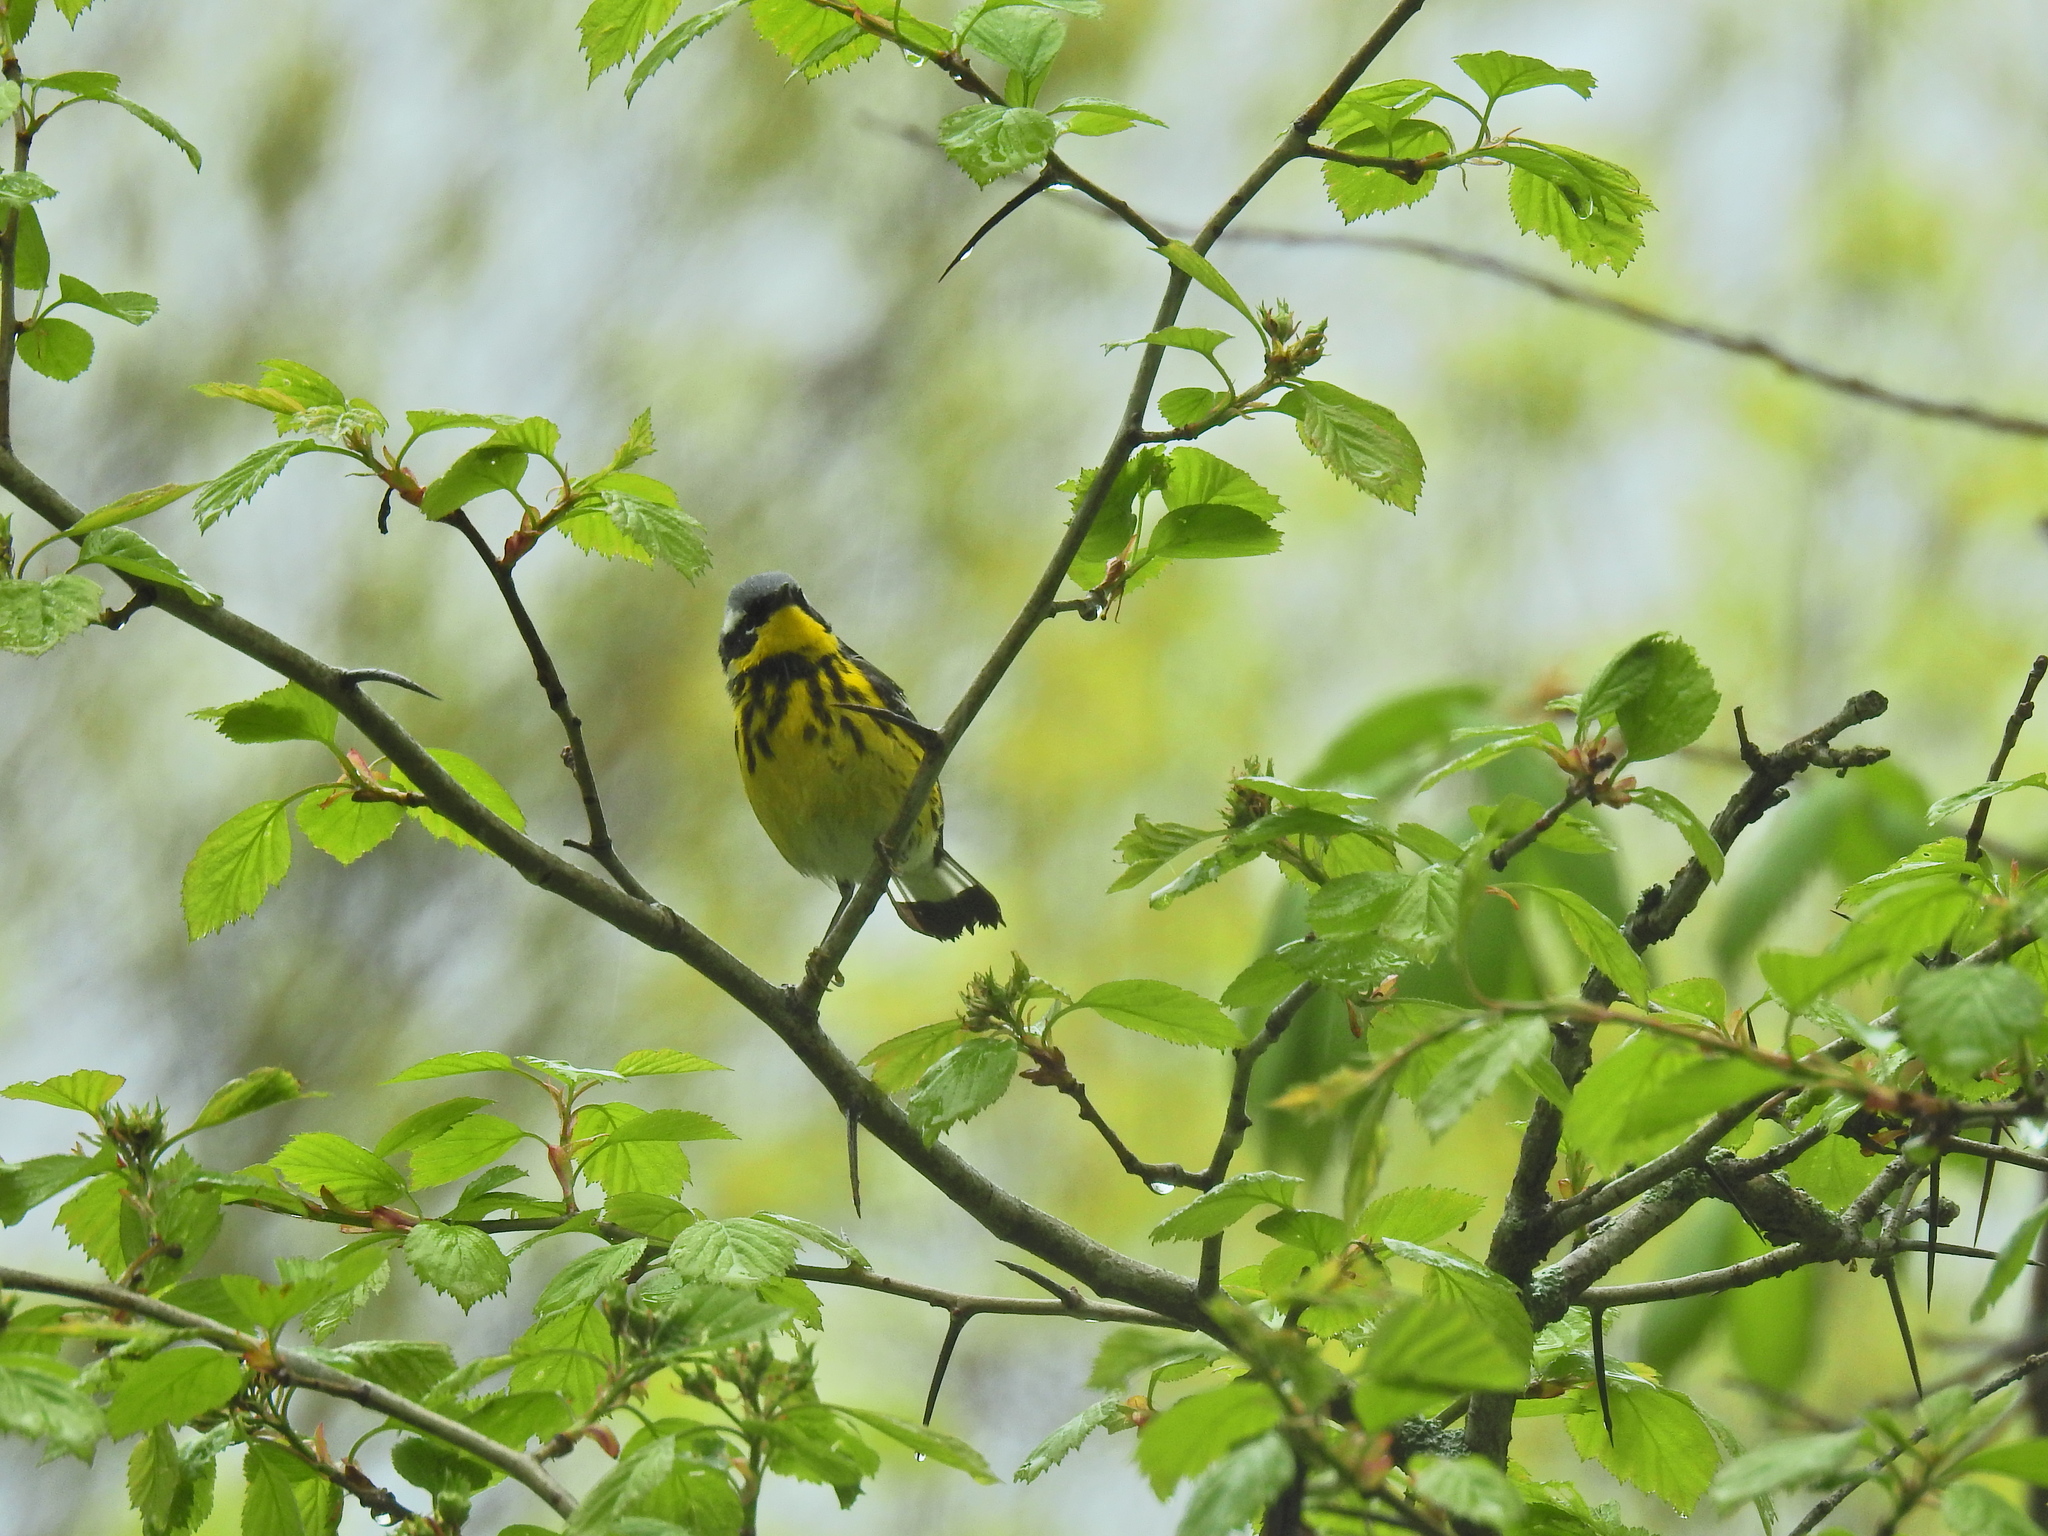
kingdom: Animalia
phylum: Chordata
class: Aves
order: Passeriformes
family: Parulidae
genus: Setophaga
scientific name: Setophaga magnolia
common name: Magnolia warbler
